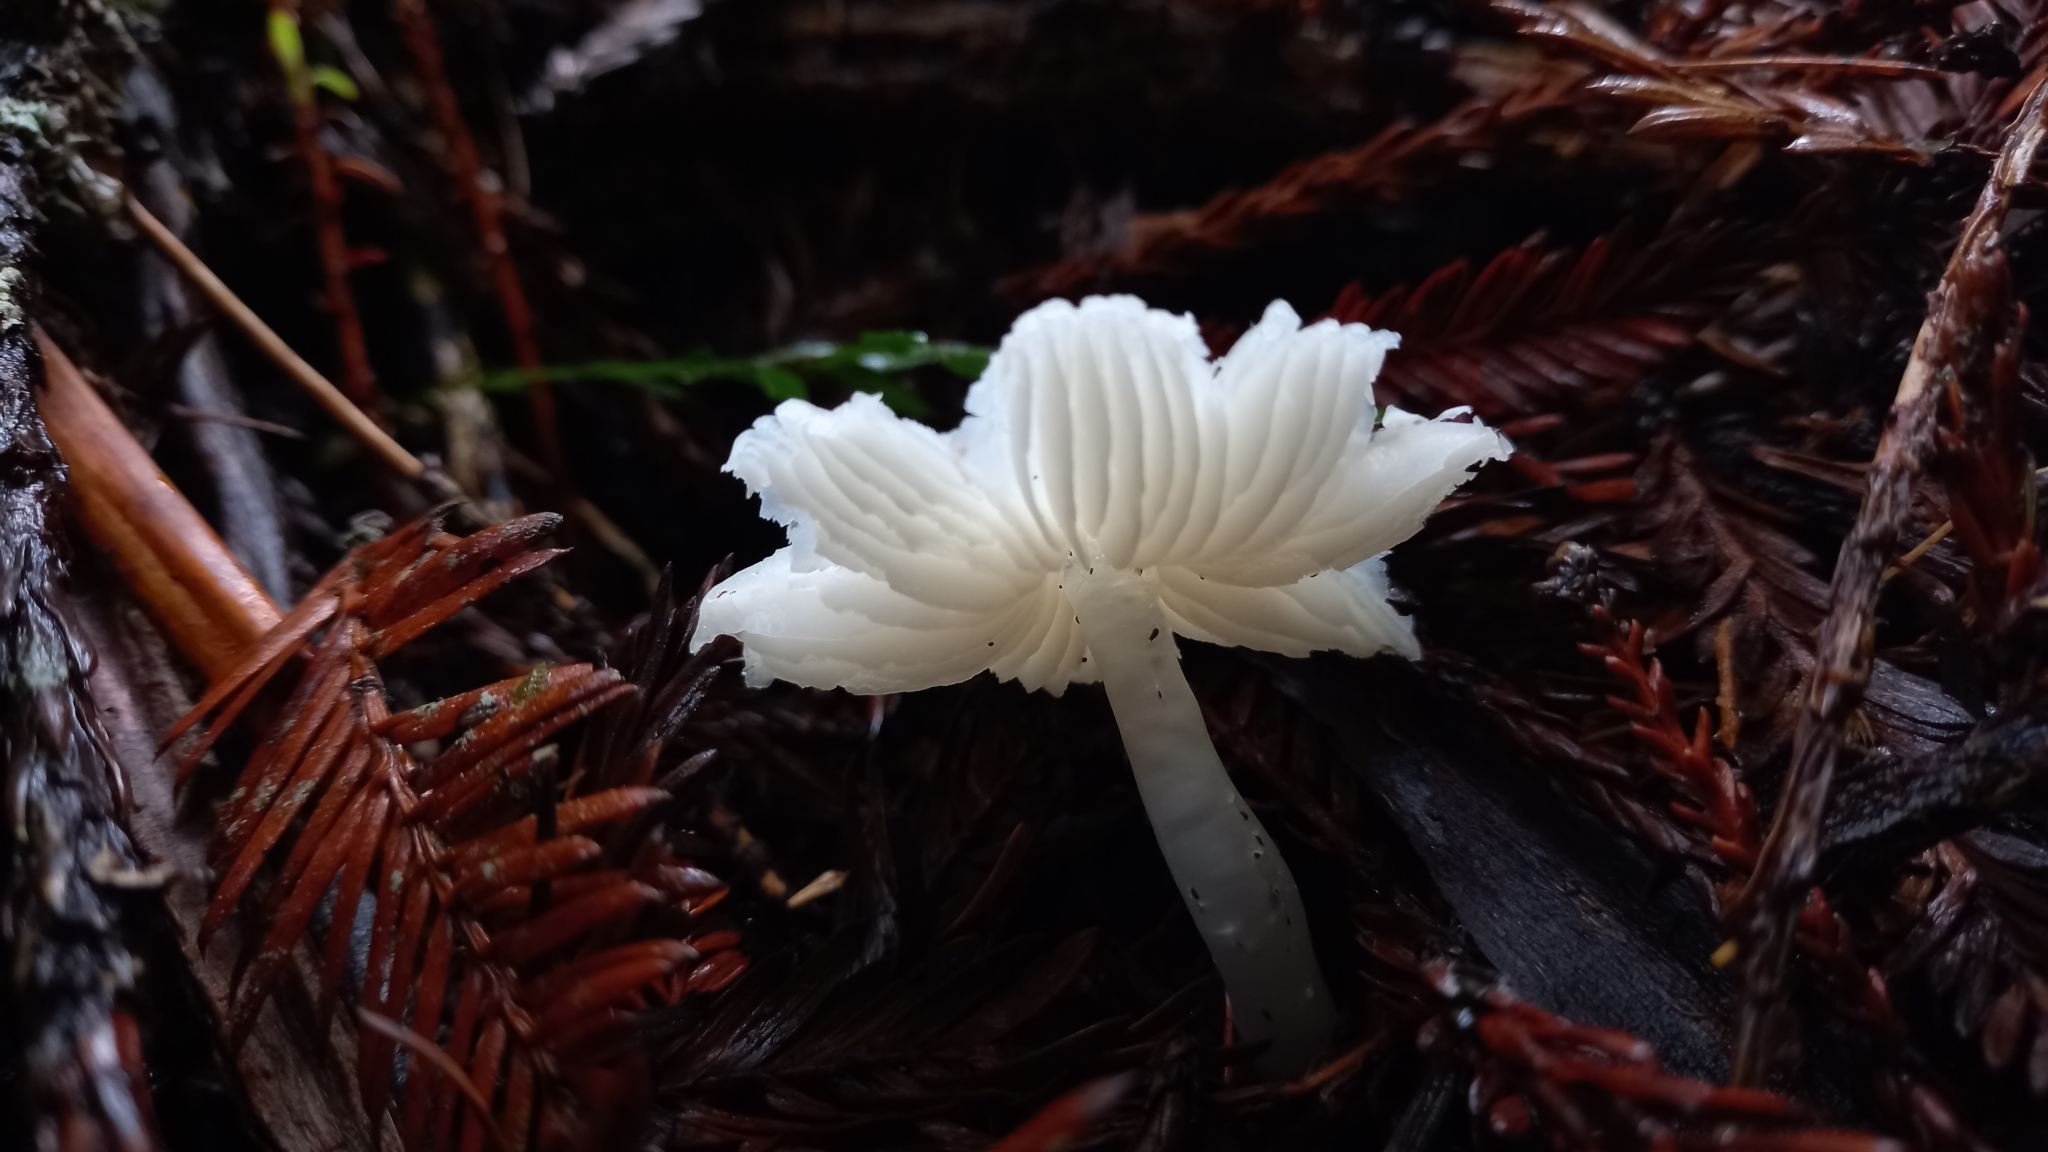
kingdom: Fungi
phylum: Basidiomycota
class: Agaricomycetes
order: Agaricales
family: Hygrophoraceae
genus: Humidicutis
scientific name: Humidicutis mavis
